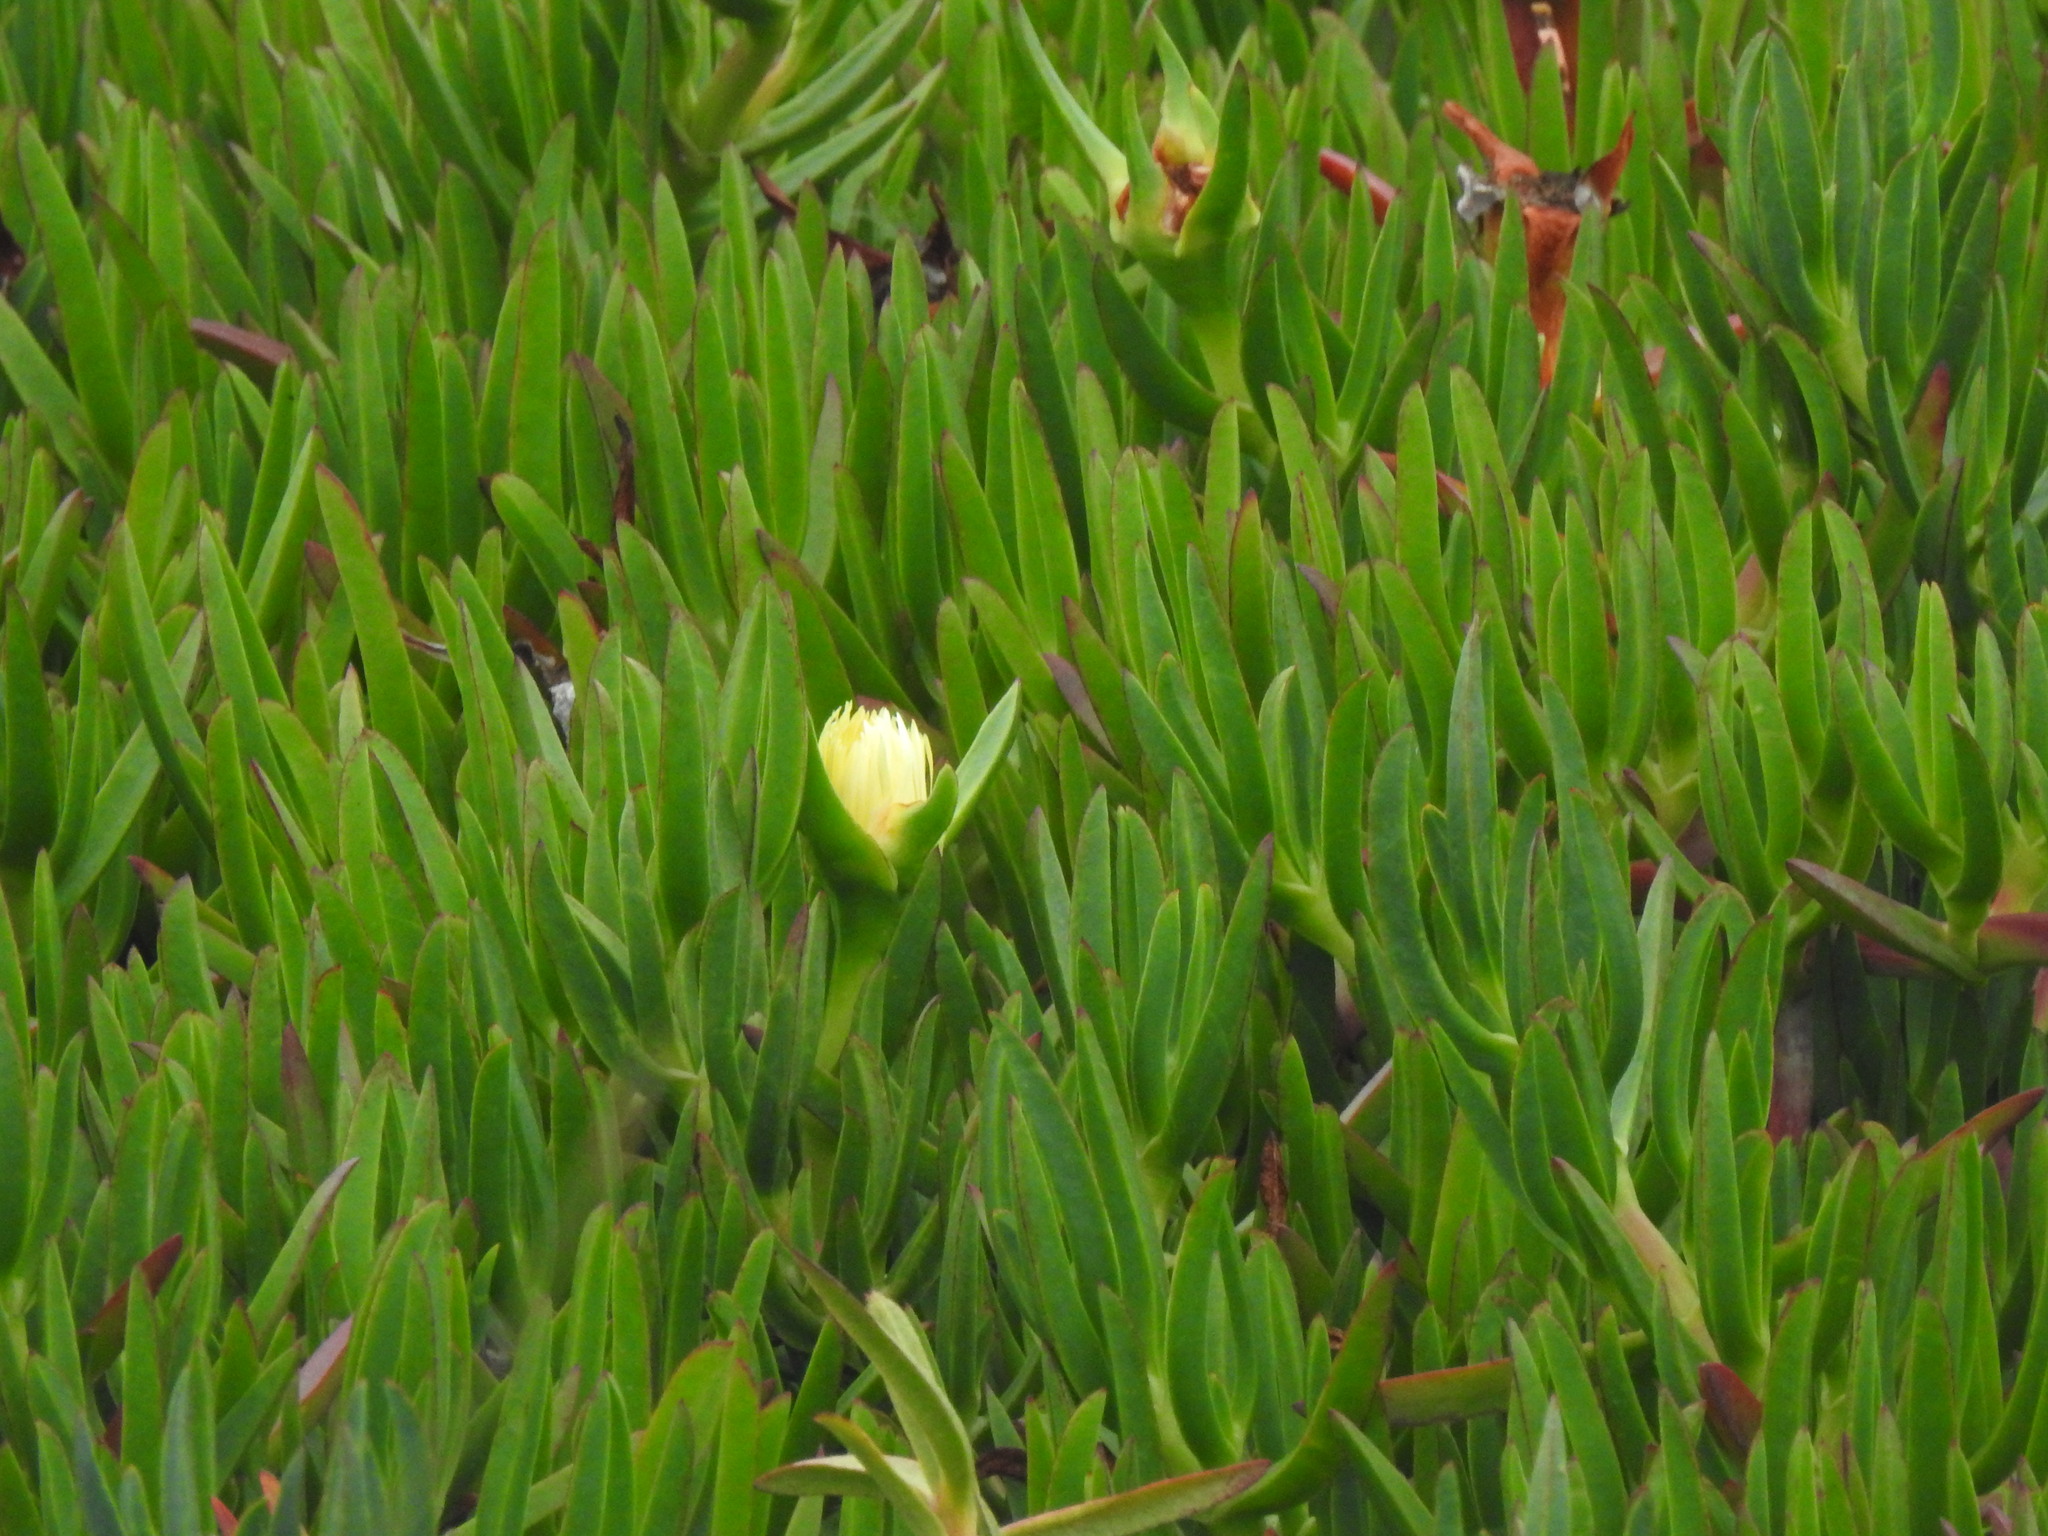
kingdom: Plantae
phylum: Tracheophyta
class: Magnoliopsida
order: Caryophyllales
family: Aizoaceae
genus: Carpobrotus
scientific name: Carpobrotus edulis
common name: Hottentot-fig
